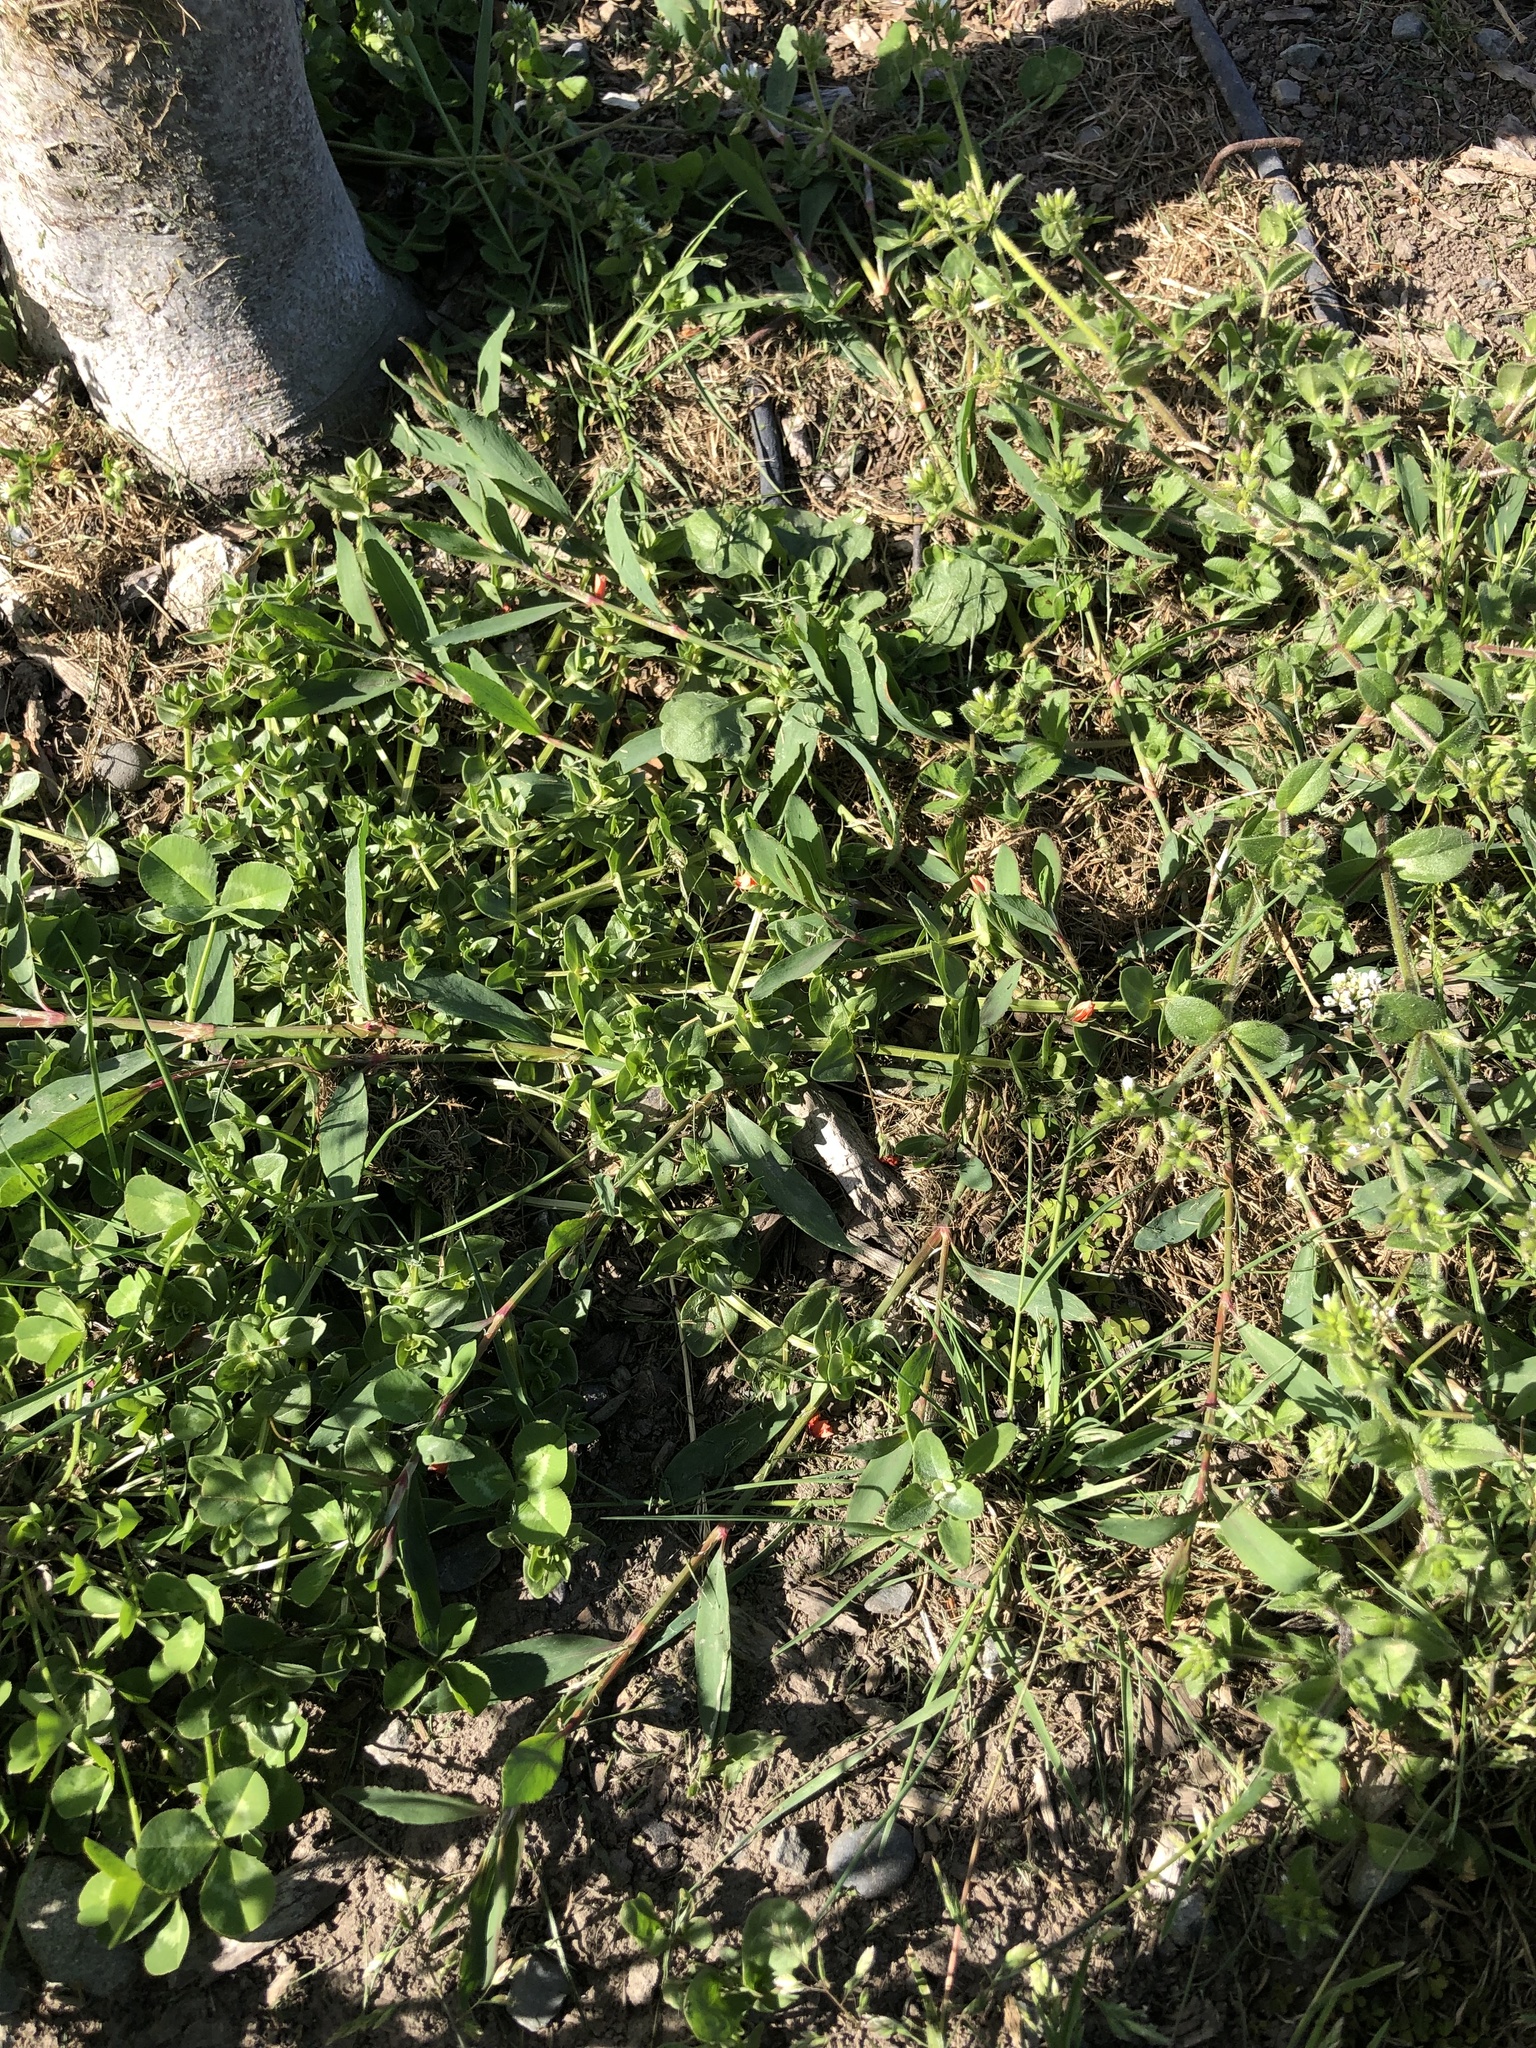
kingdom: Plantae
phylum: Tracheophyta
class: Magnoliopsida
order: Ericales
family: Primulaceae
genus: Lysimachia
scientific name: Lysimachia arvensis
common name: Scarlet pimpernel
